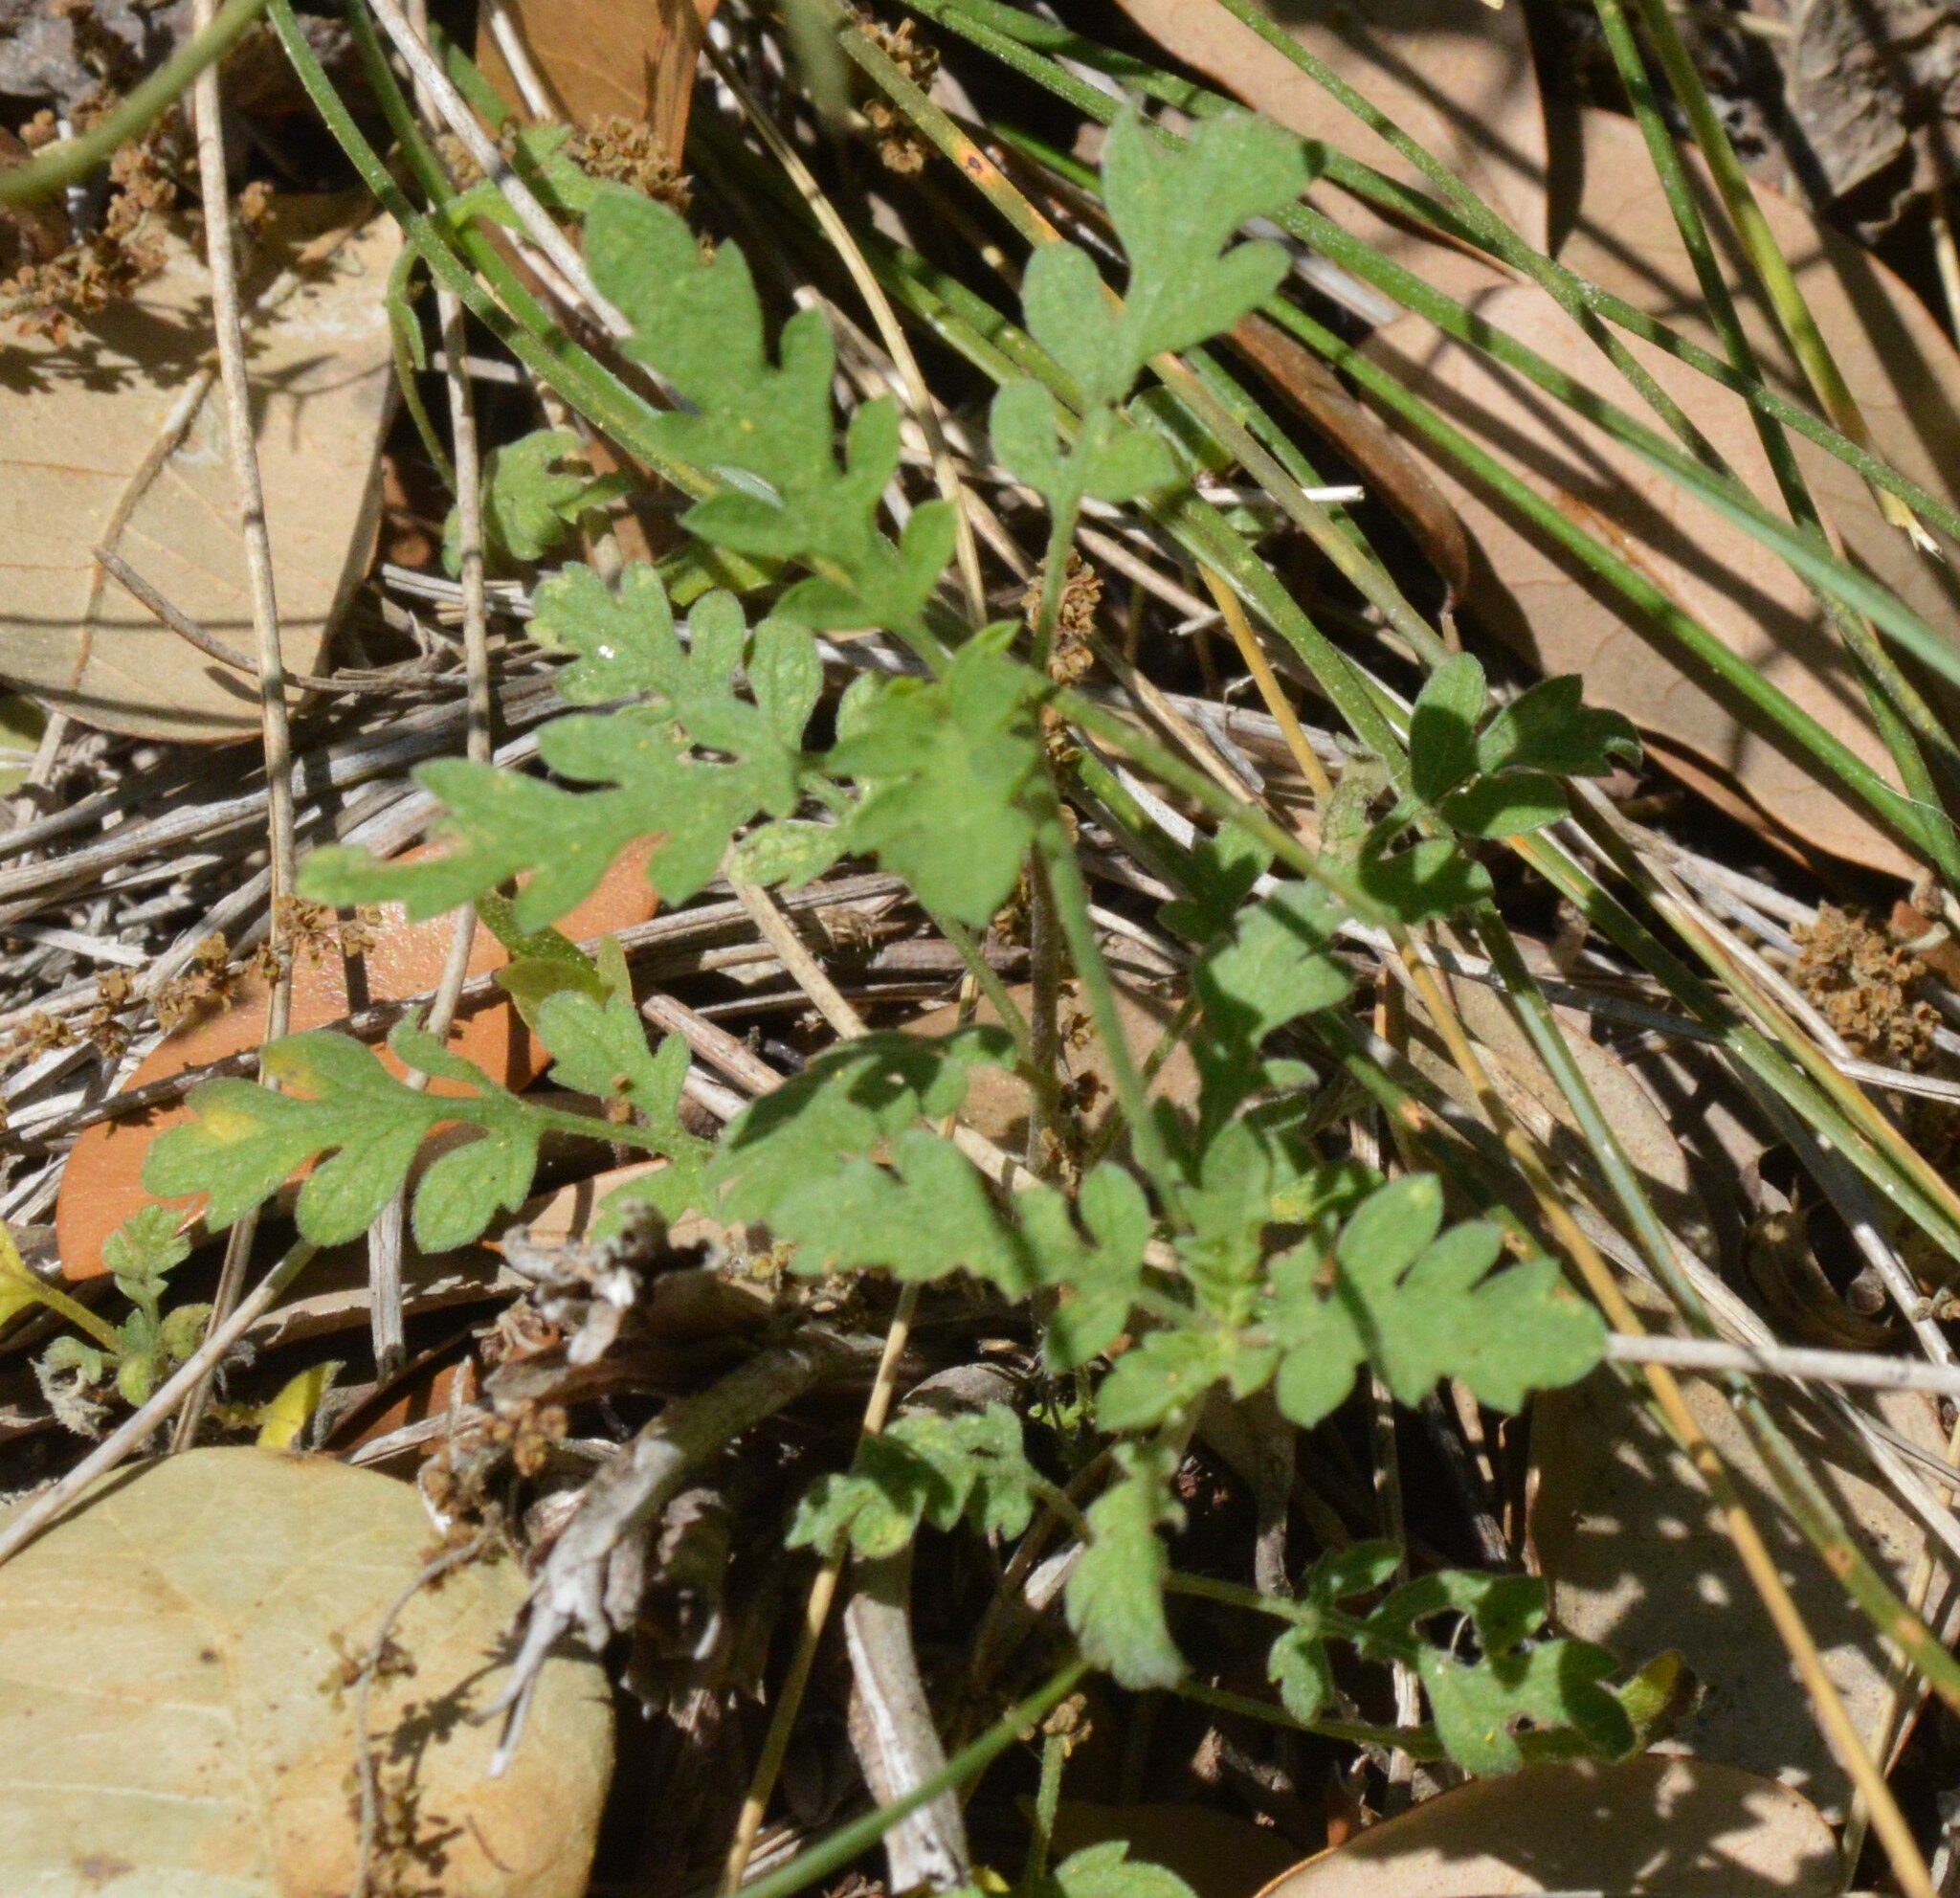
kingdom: Plantae
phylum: Tracheophyta
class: Magnoliopsida
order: Asterales
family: Asteraceae
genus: Ambrosia
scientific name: Ambrosia psilostachya
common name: Perennial ragweed
